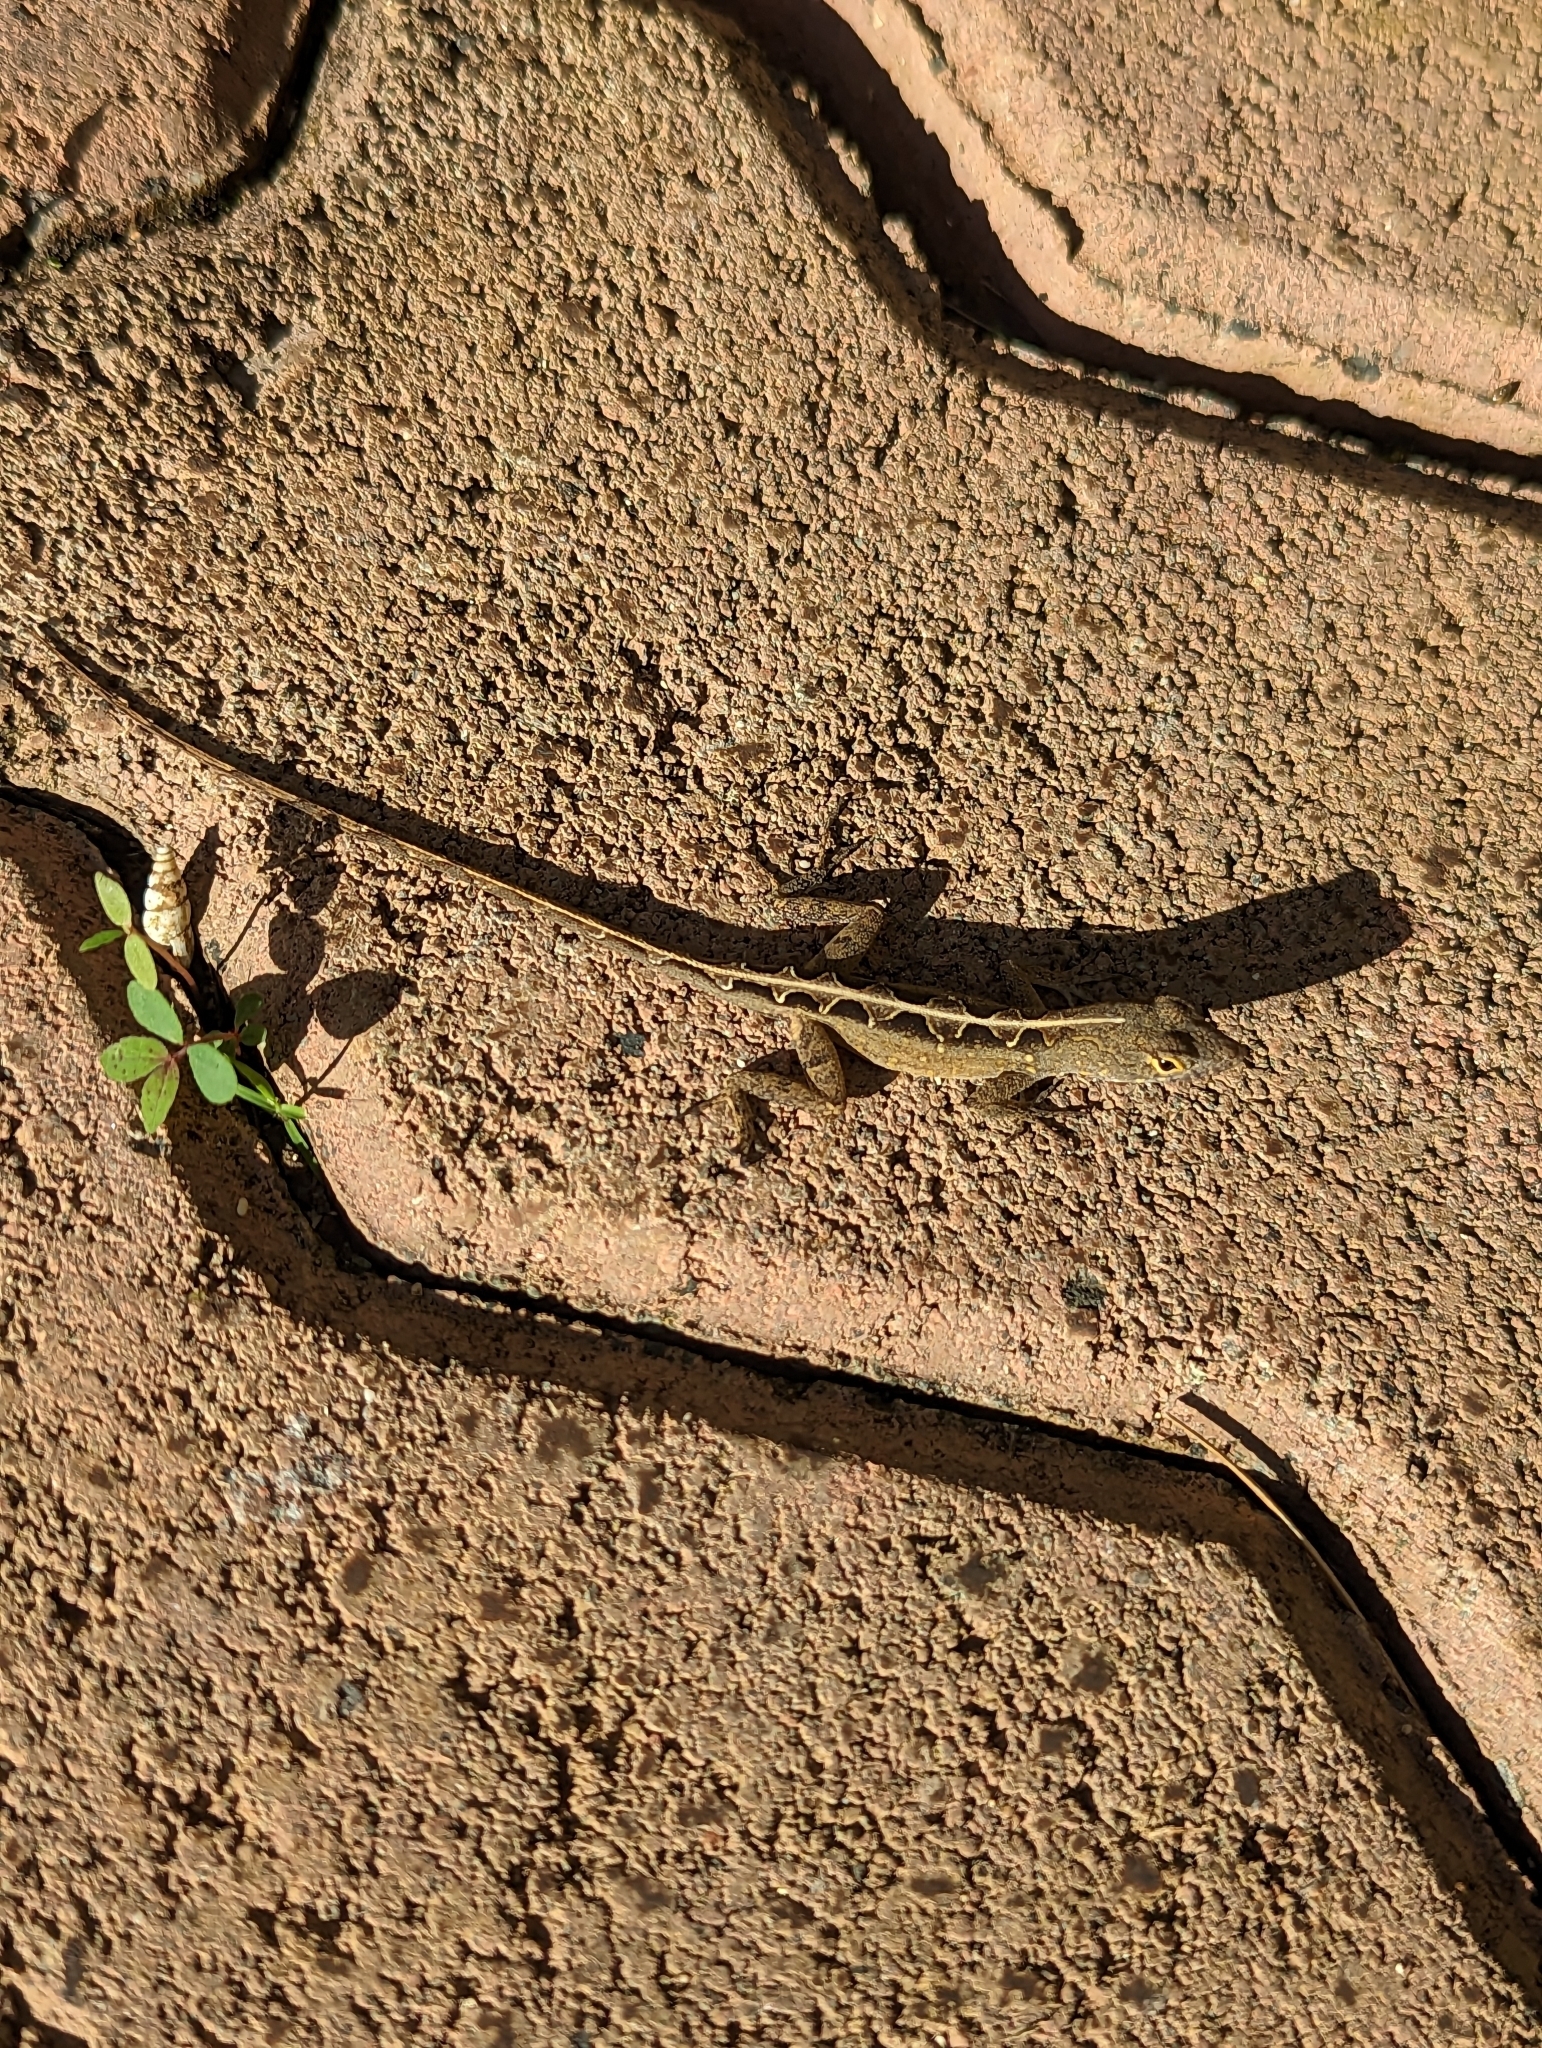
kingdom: Animalia
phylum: Chordata
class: Squamata
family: Dactyloidae
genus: Anolis
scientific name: Anolis sagrei
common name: Brown anole
